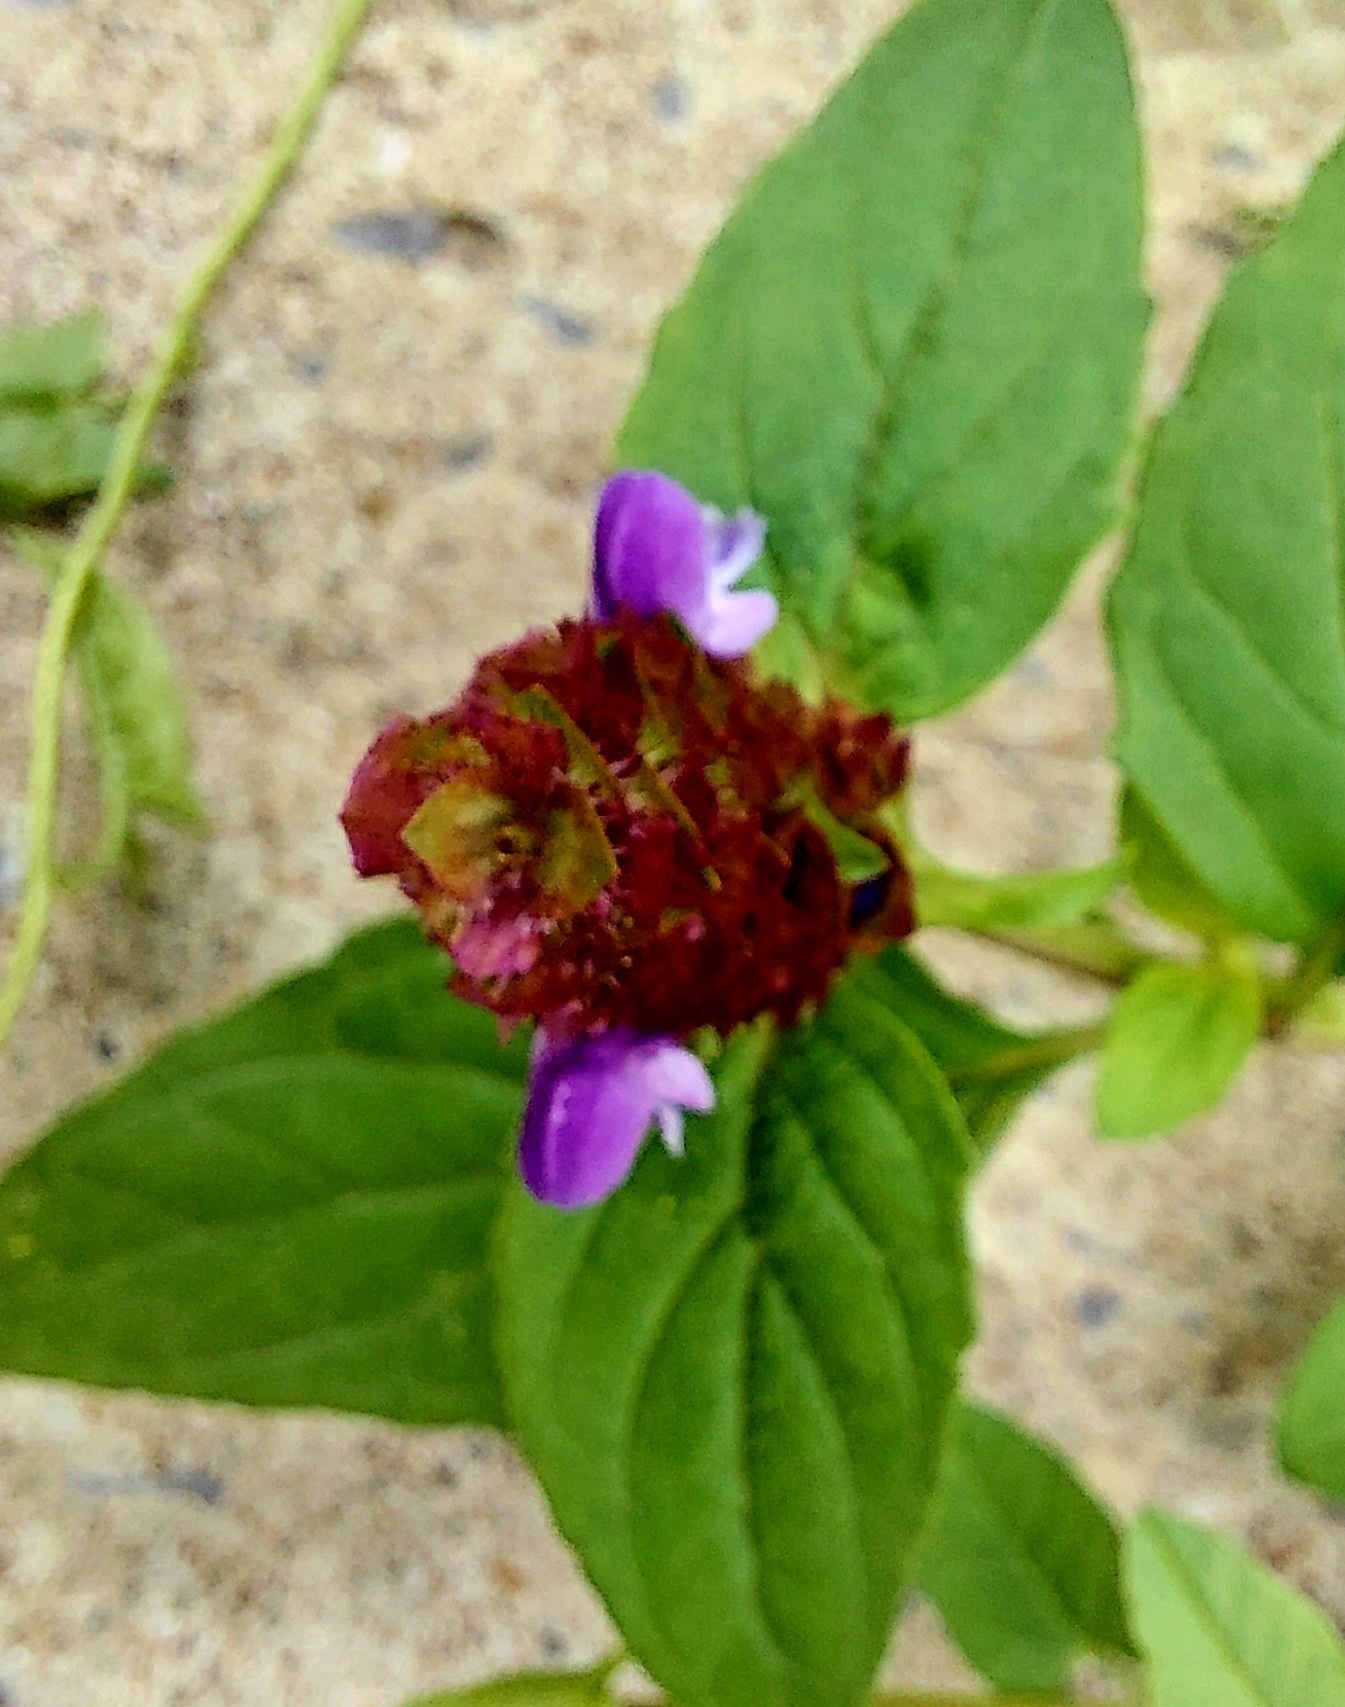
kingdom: Plantae
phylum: Tracheophyta
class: Magnoliopsida
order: Lamiales
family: Lamiaceae
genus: Prunella
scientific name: Prunella vulgaris
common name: Heal-all
